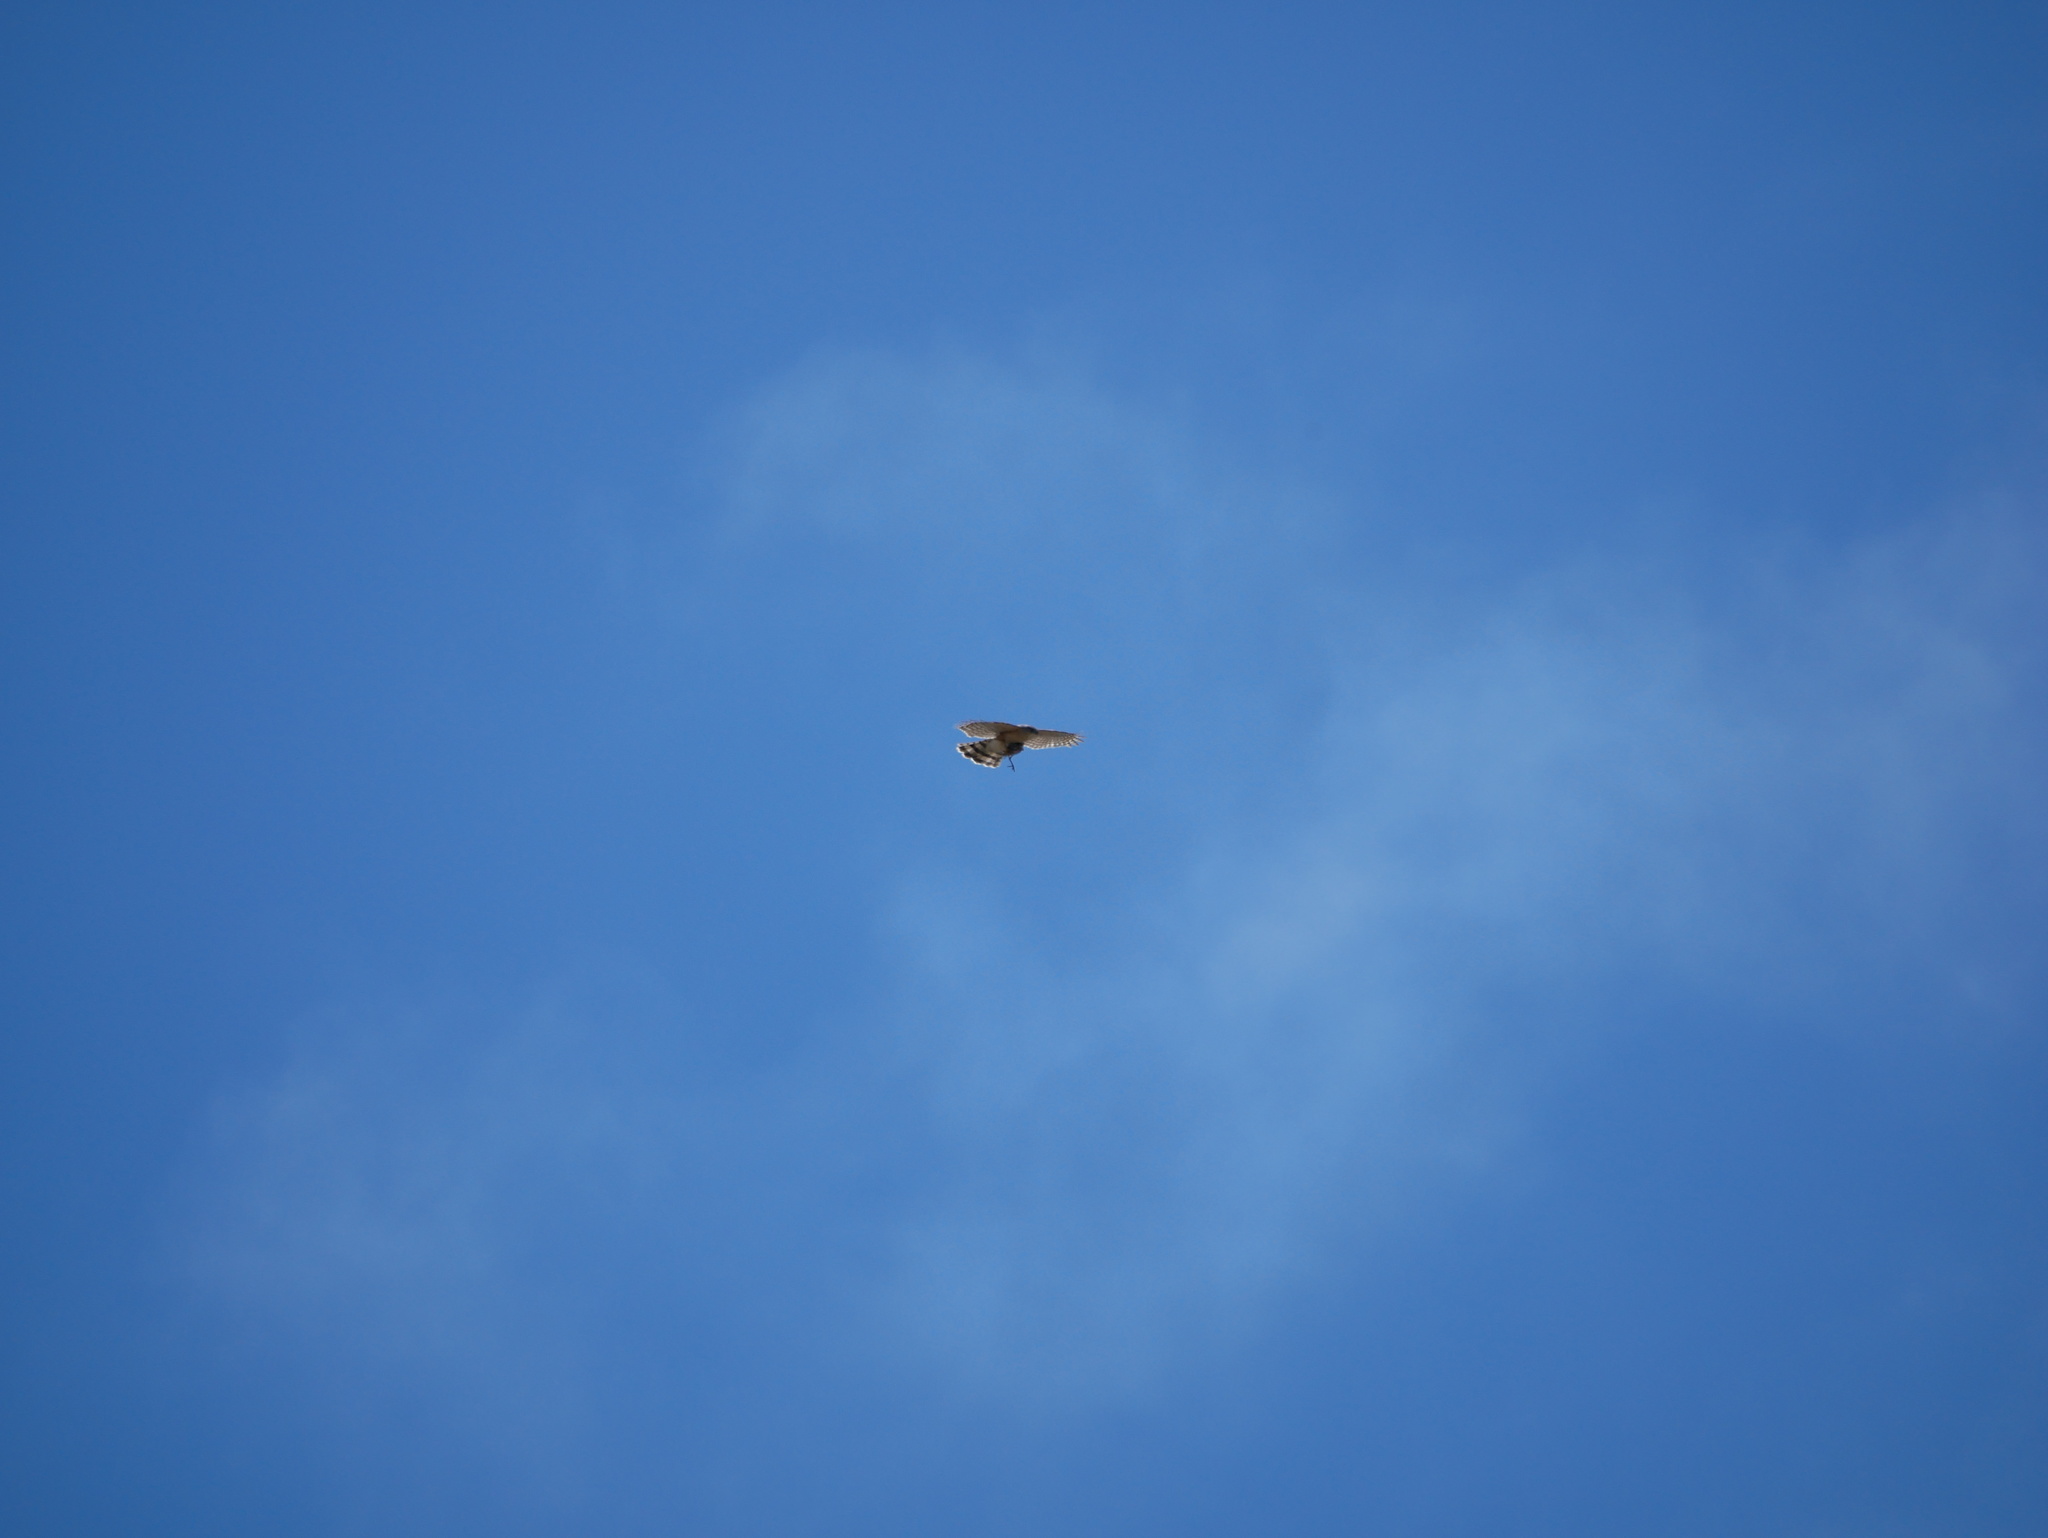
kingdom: Animalia
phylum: Chordata
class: Aves
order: Accipitriformes
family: Accipitridae
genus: Accipiter
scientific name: Accipiter cooperii
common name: Cooper's hawk
